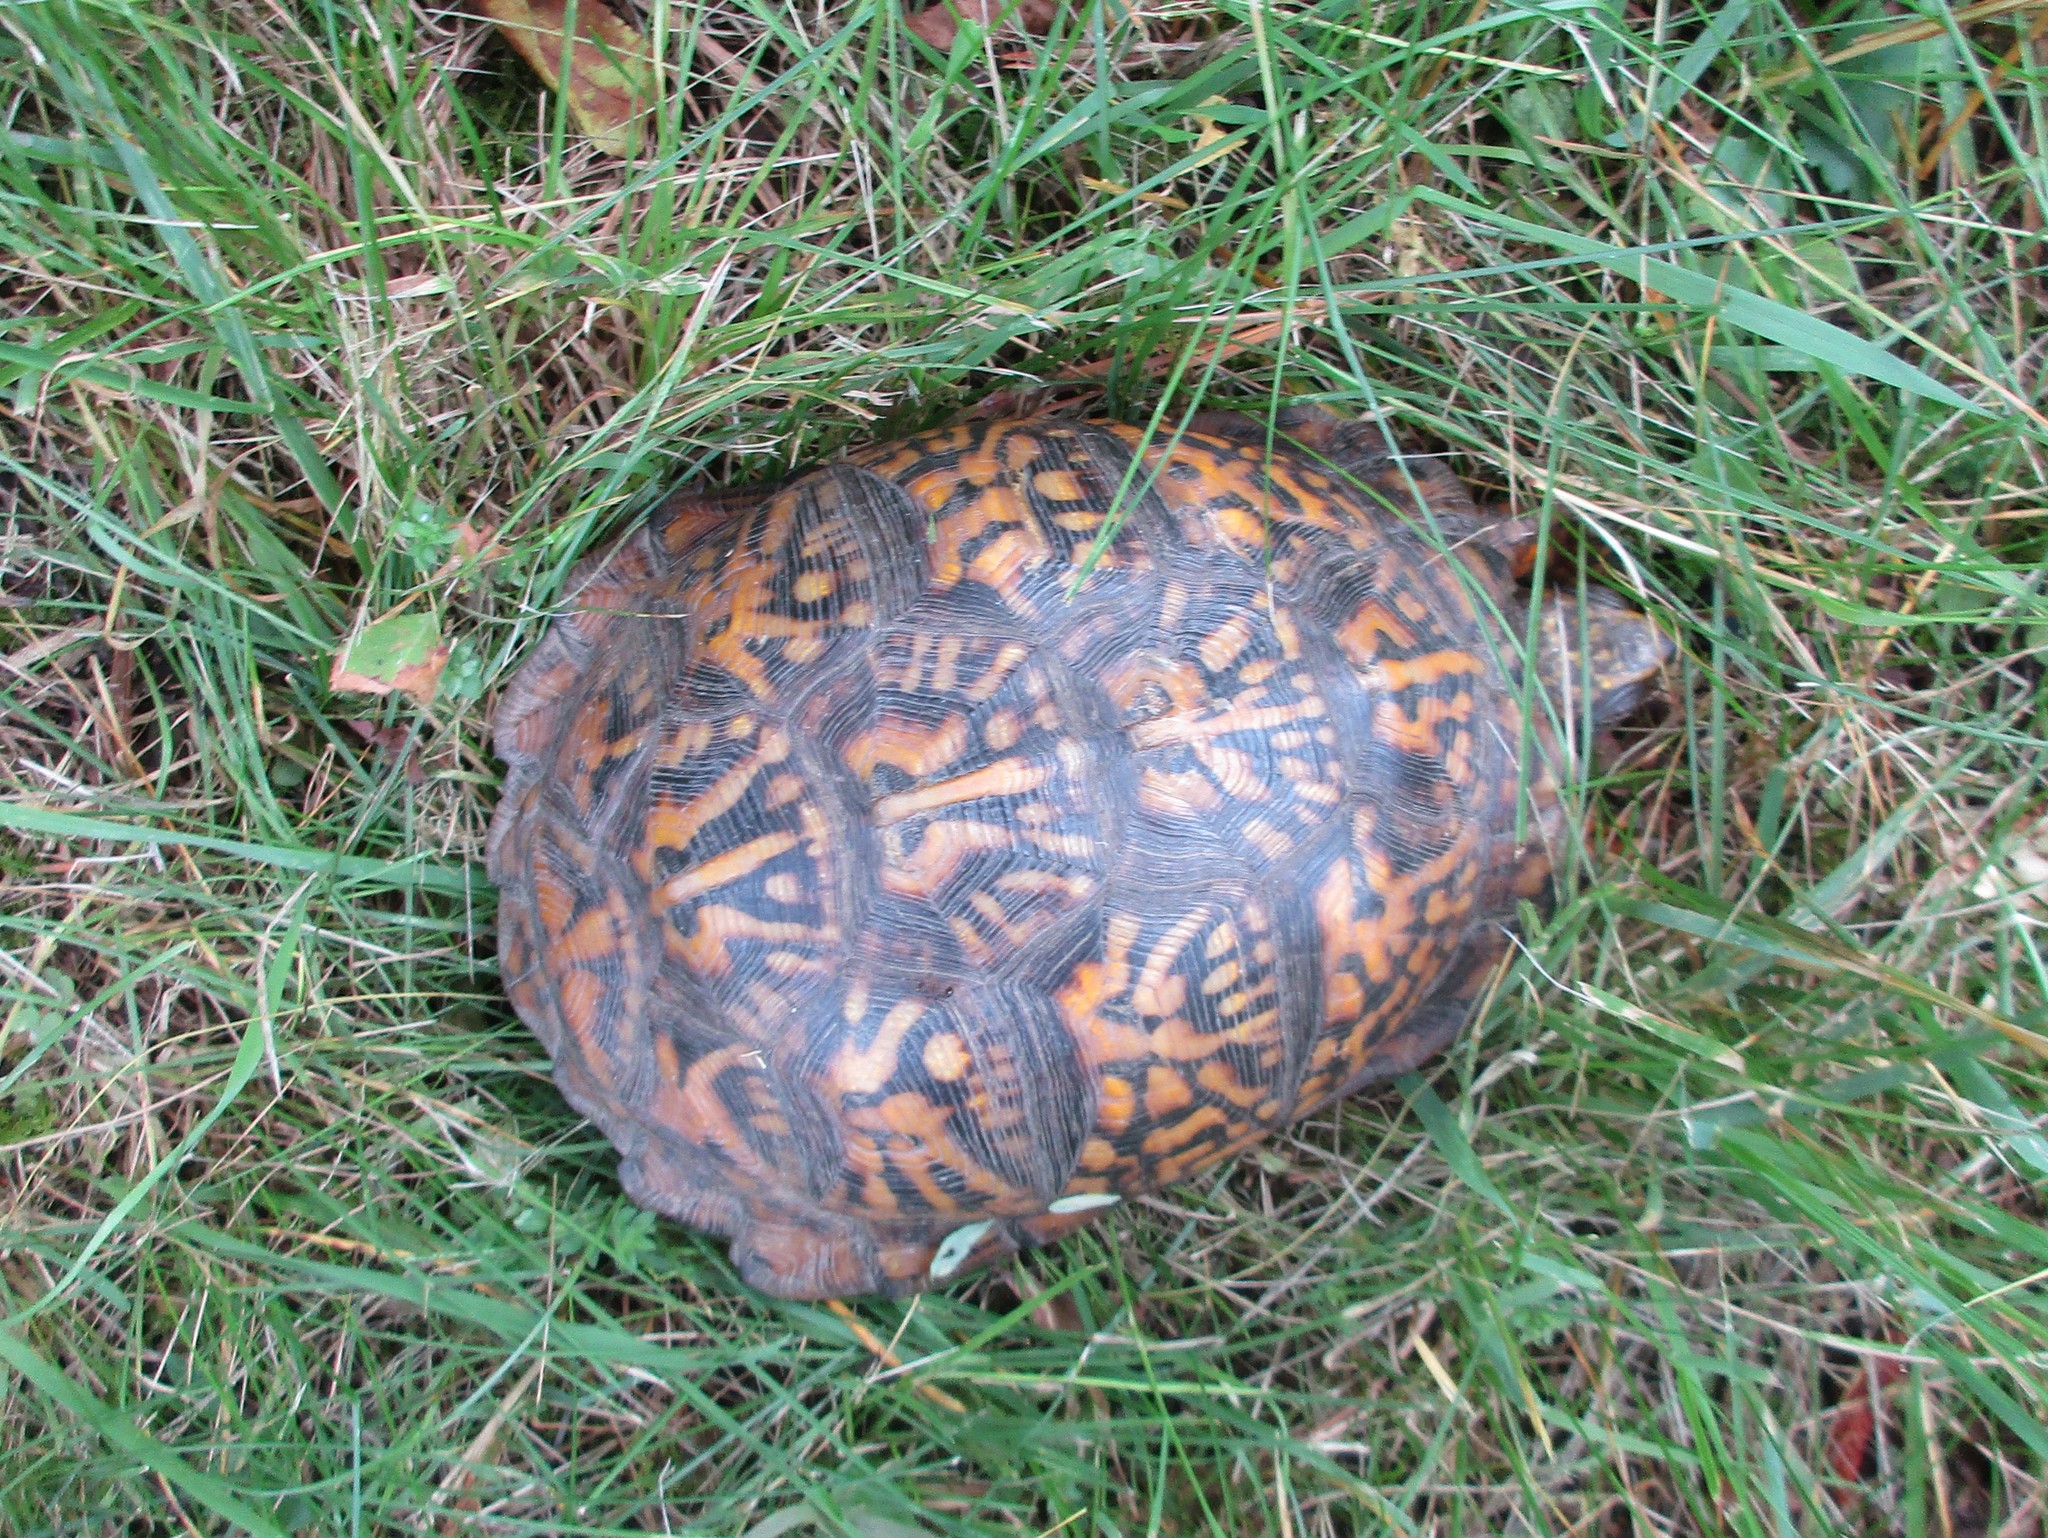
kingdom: Animalia
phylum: Chordata
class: Testudines
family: Emydidae
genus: Terrapene
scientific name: Terrapene carolina
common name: Common box turtle
